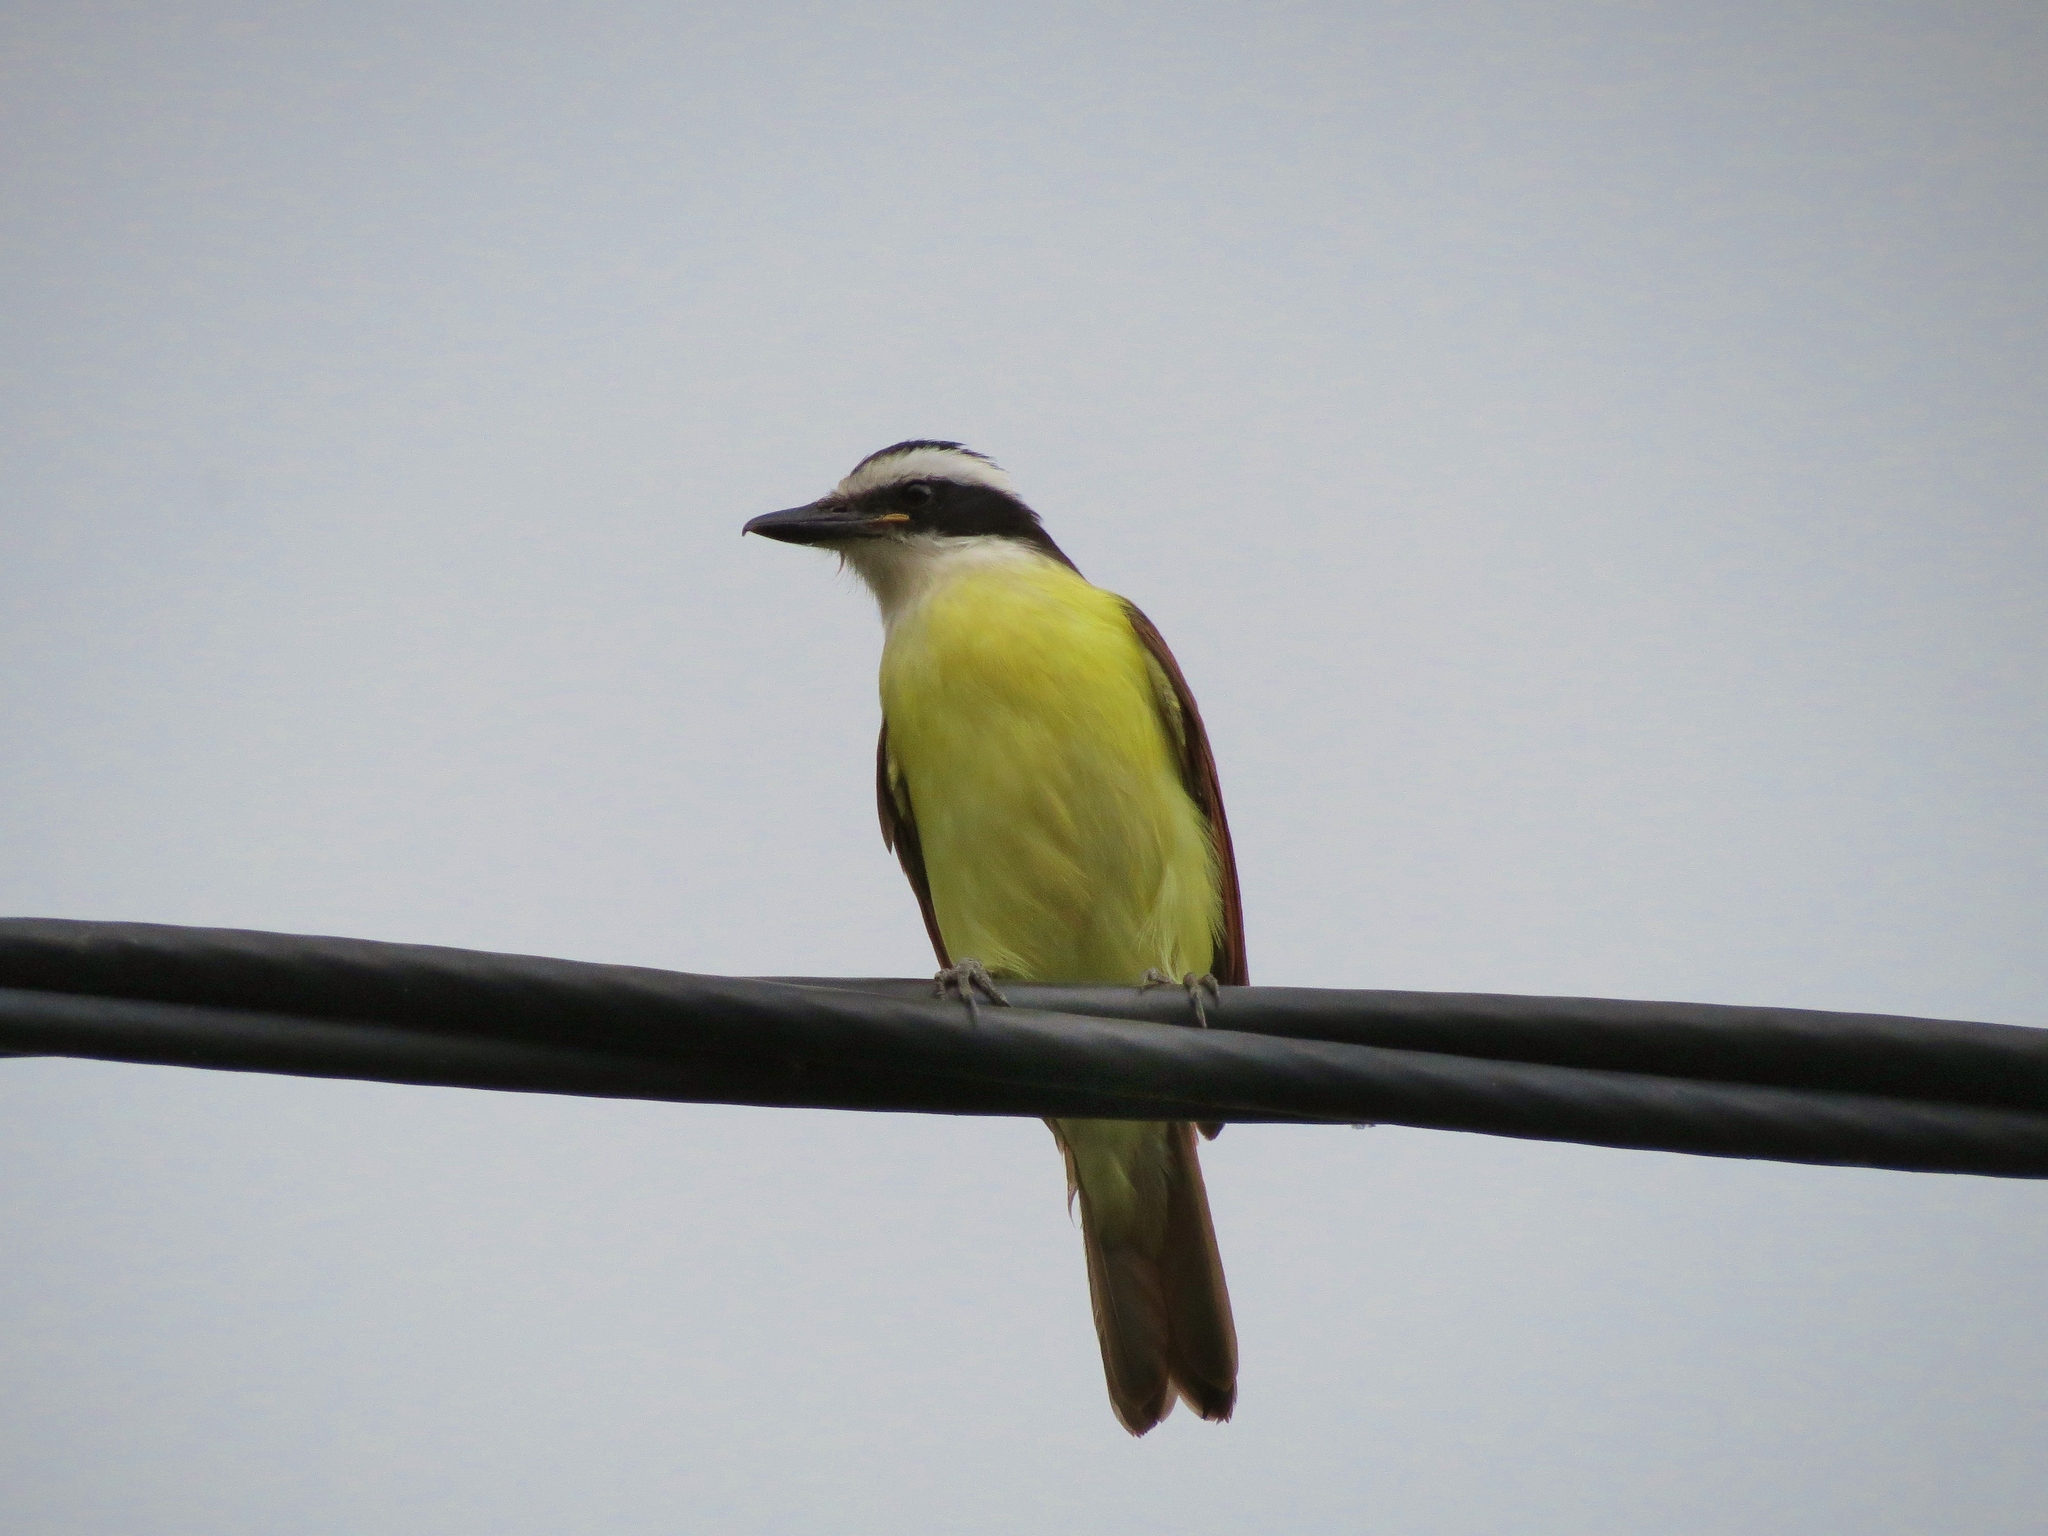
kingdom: Animalia
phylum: Chordata
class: Aves
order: Passeriformes
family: Tyrannidae
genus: Pitangus
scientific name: Pitangus sulphuratus
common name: Great kiskadee
